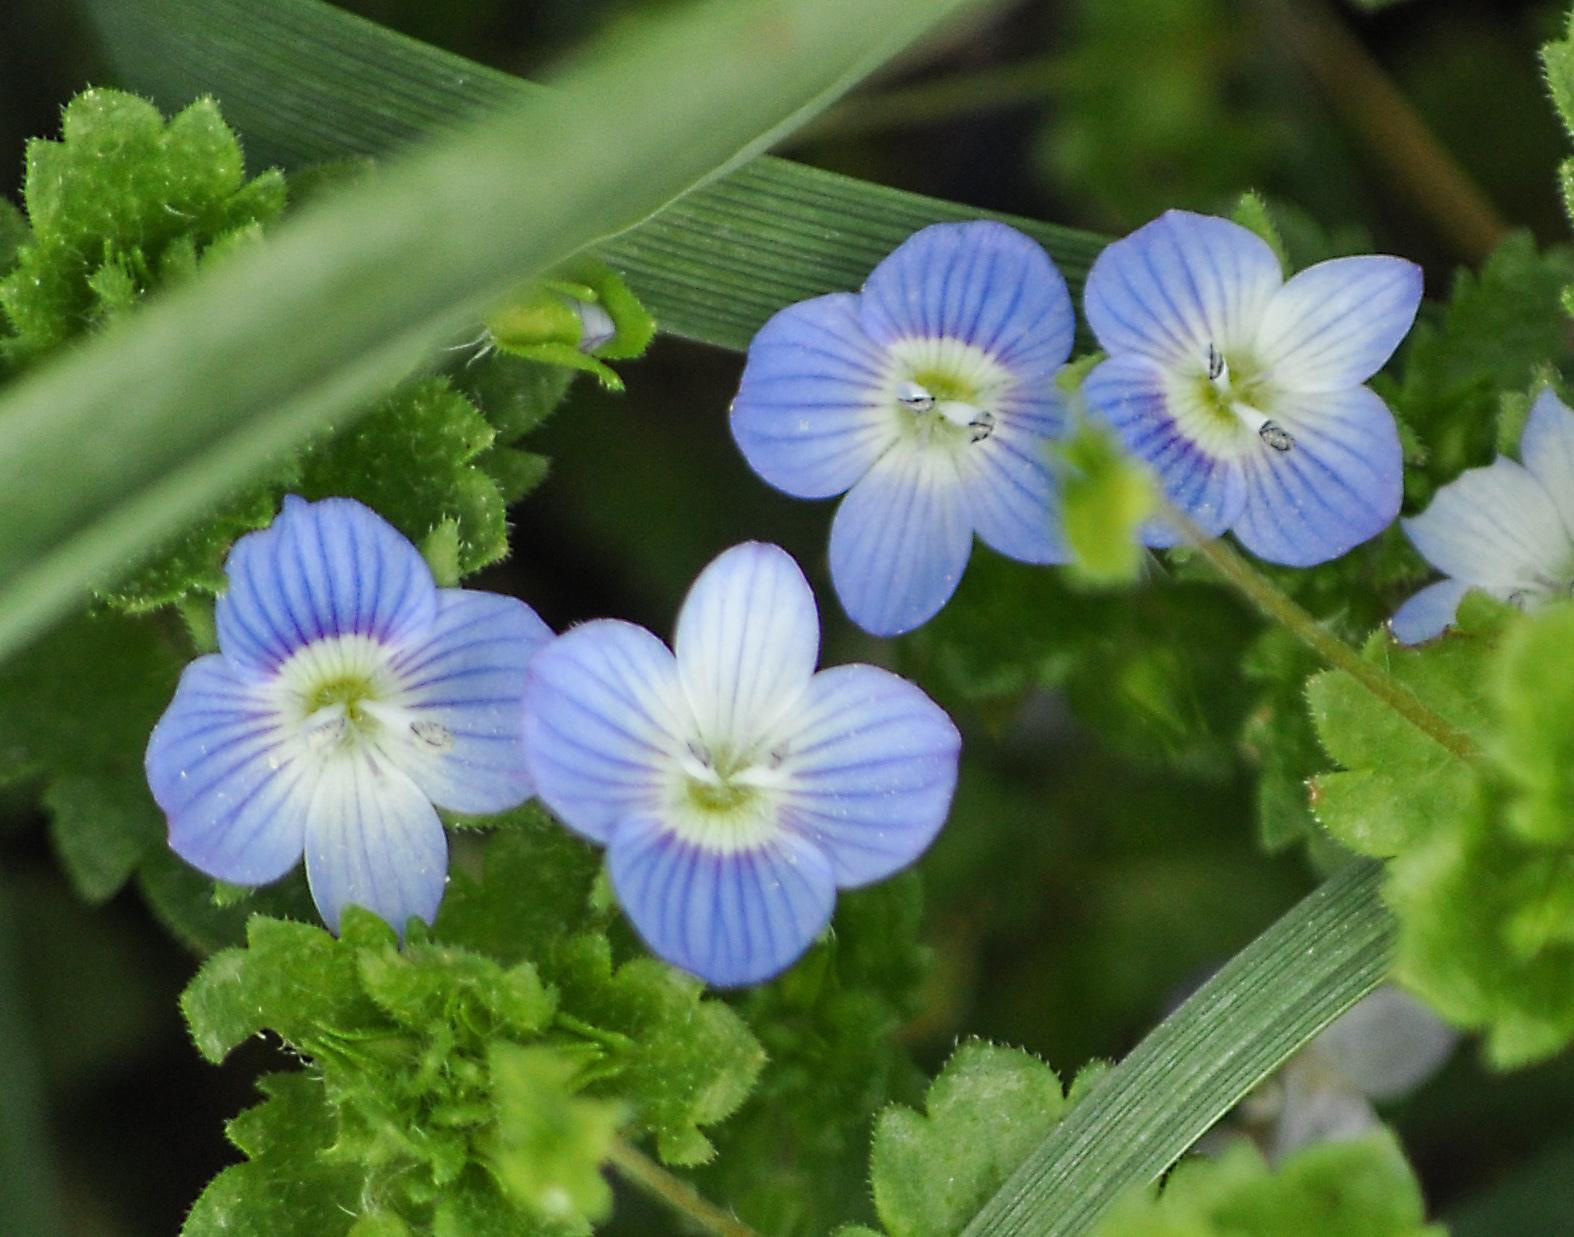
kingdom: Plantae
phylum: Tracheophyta
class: Magnoliopsida
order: Lamiales
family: Plantaginaceae
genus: Veronica
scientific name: Veronica persica
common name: Common field-speedwell
